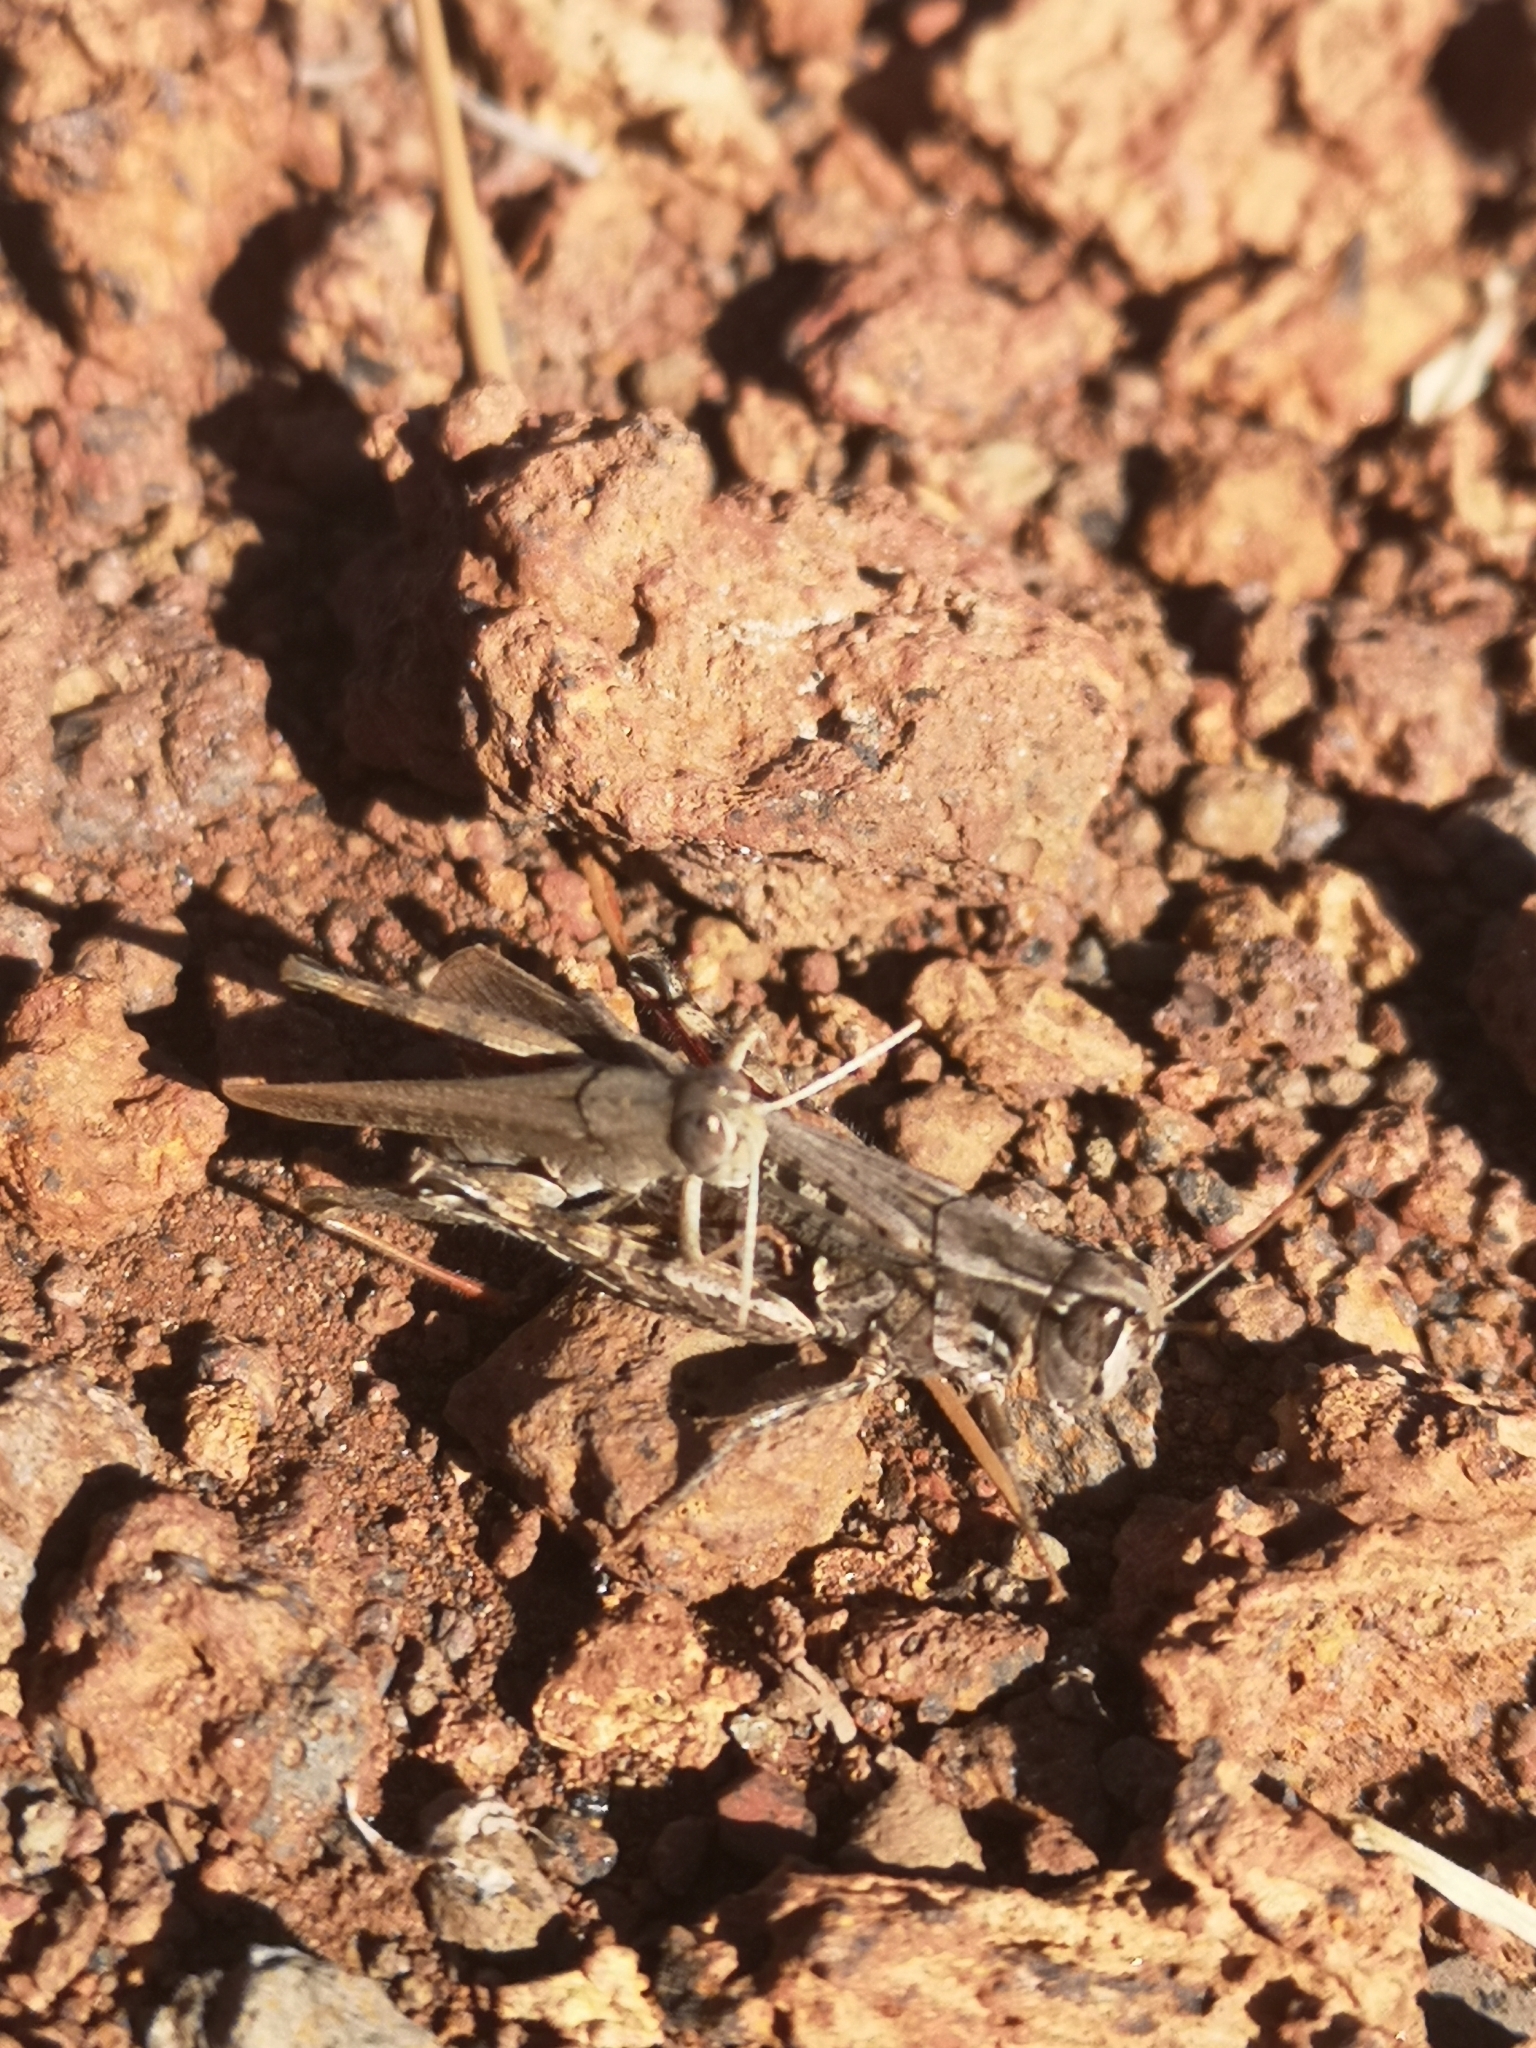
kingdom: Animalia
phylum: Arthropoda
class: Insecta
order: Orthoptera
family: Acrididae
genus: Calliptamus
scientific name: Calliptamus plebeius
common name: Canarian pincer grasshopper
